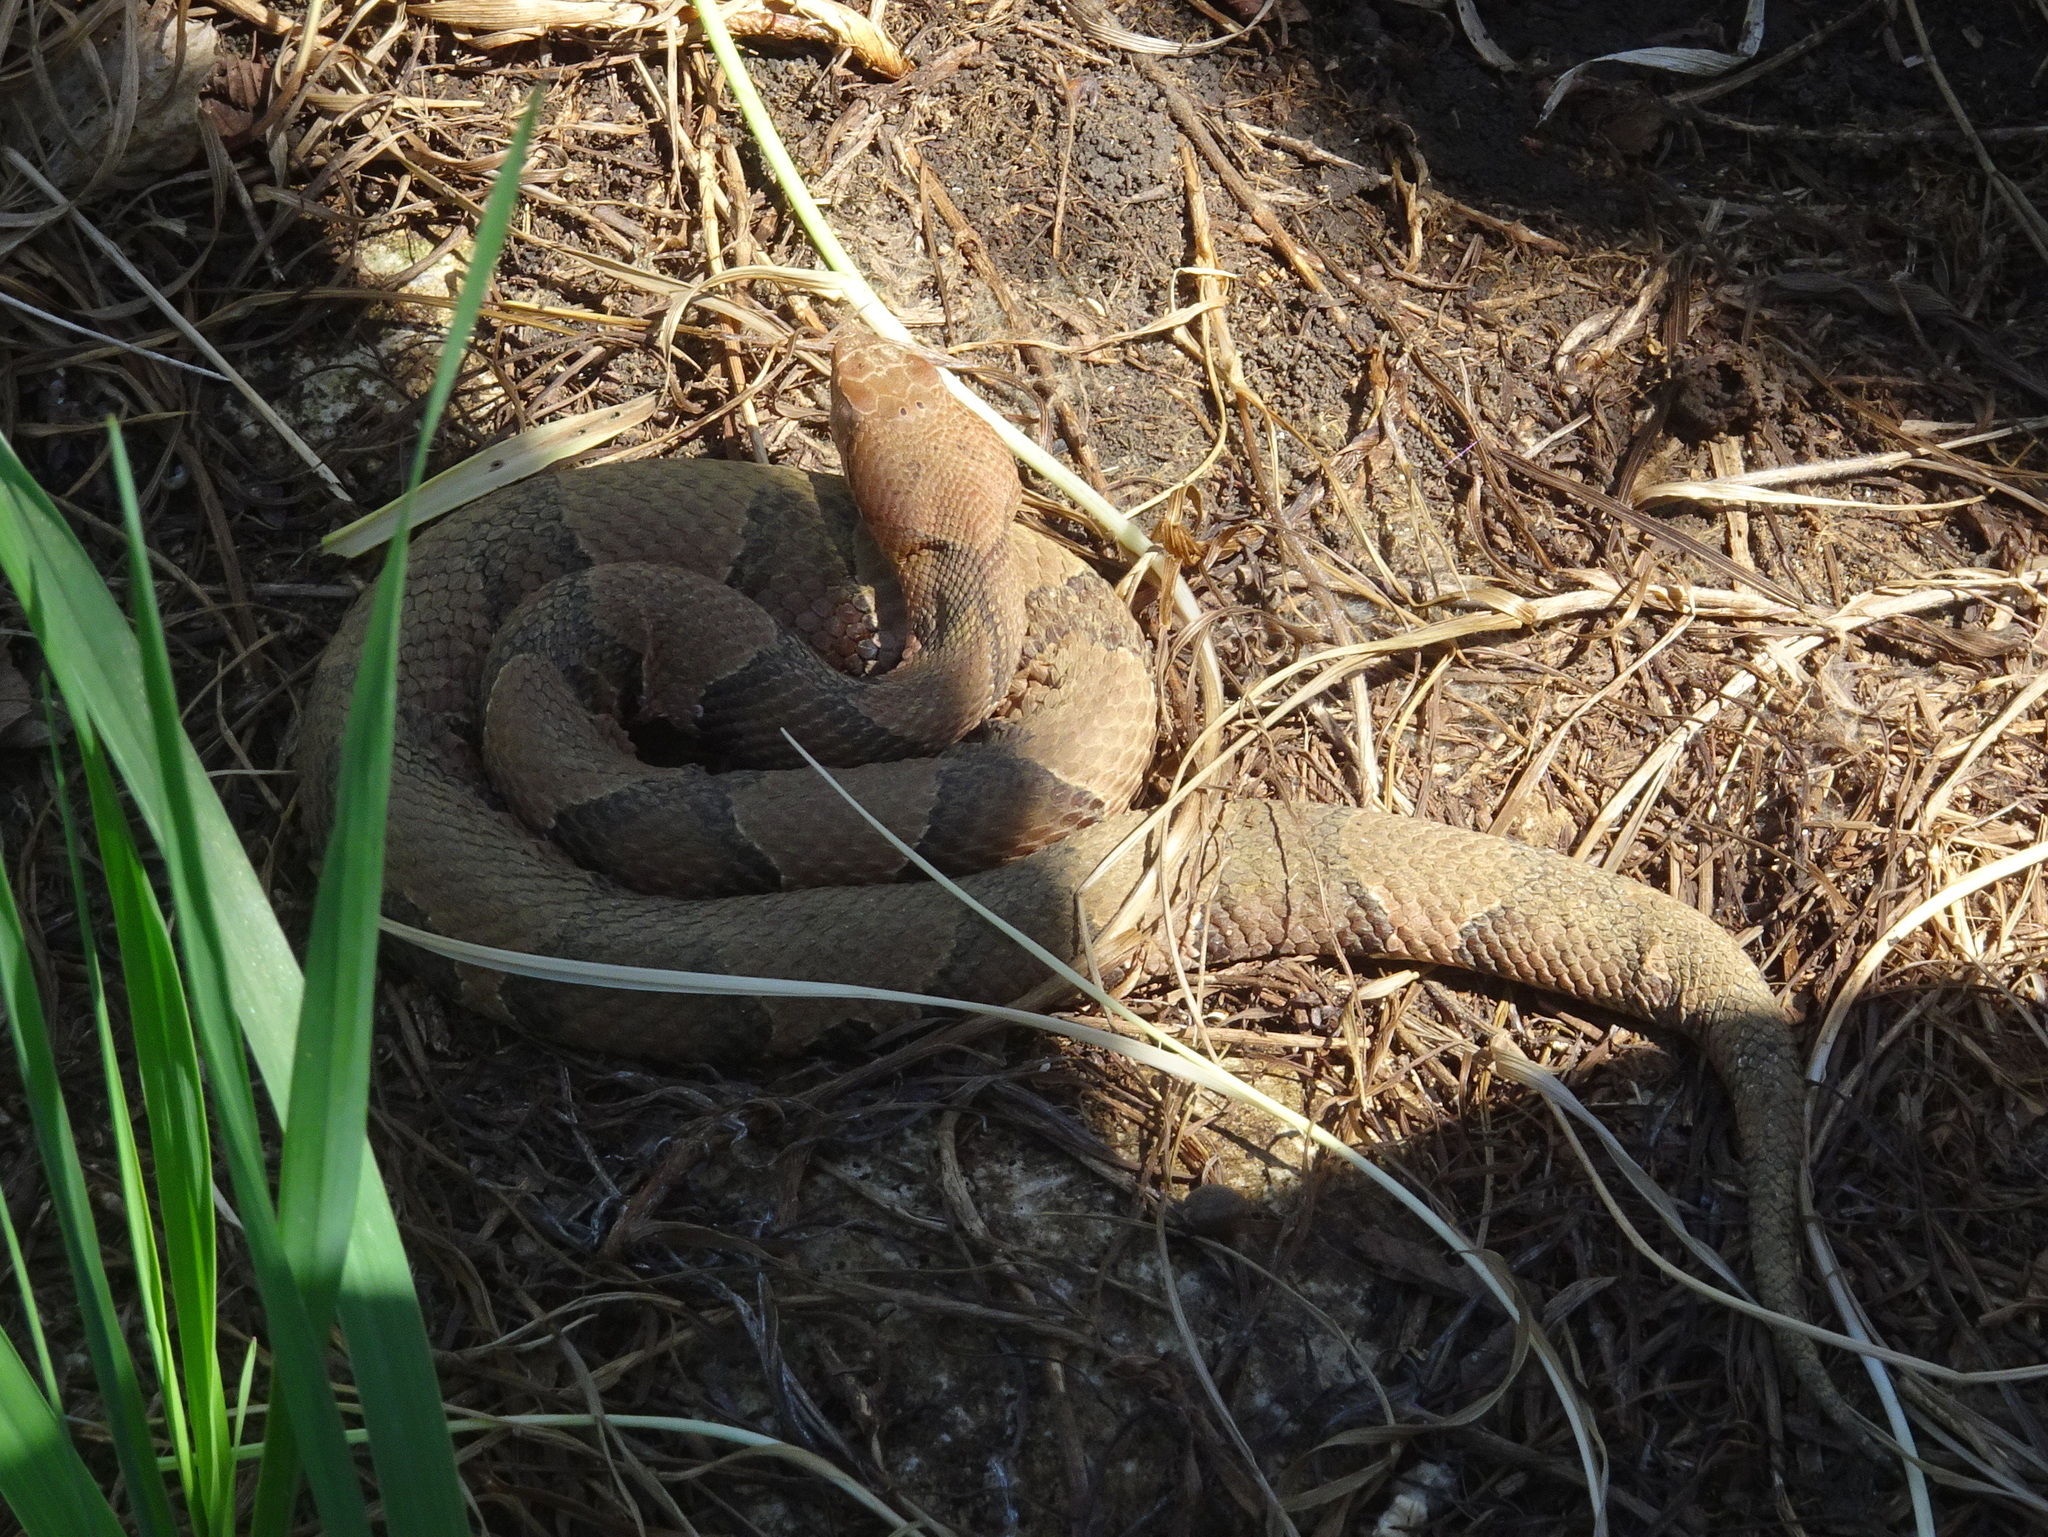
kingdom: Animalia
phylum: Chordata
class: Squamata
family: Viperidae
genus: Agkistrodon
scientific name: Agkistrodon contortrix
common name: Northern copperhead
